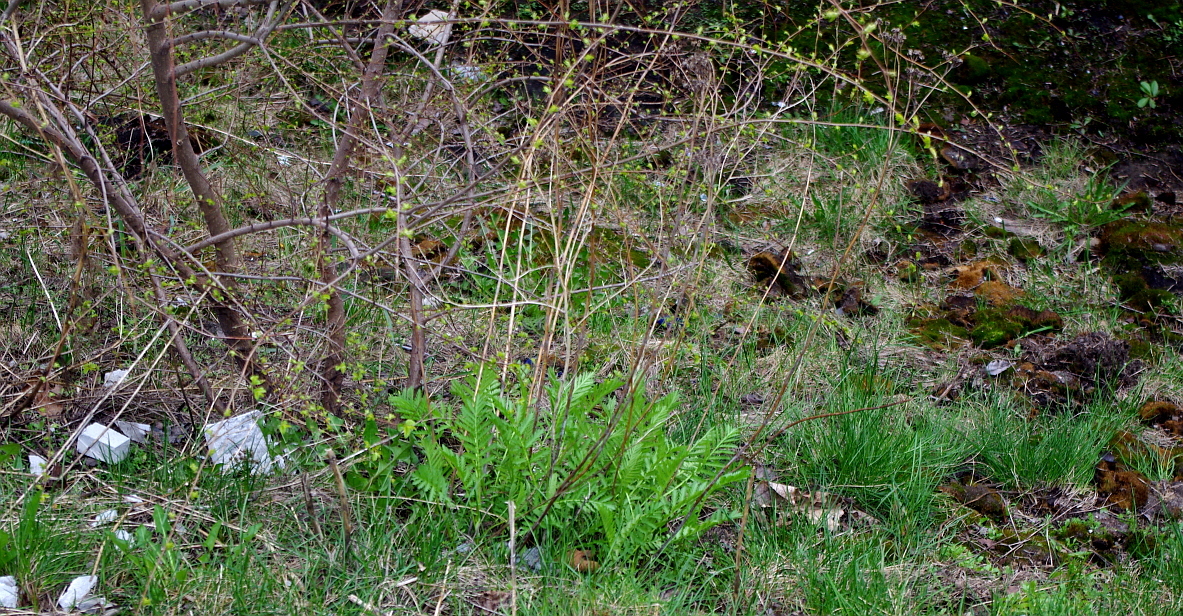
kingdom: Plantae
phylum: Tracheophyta
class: Magnoliopsida
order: Asterales
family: Asteraceae
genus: Tanacetum
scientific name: Tanacetum vulgare
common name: Common tansy
